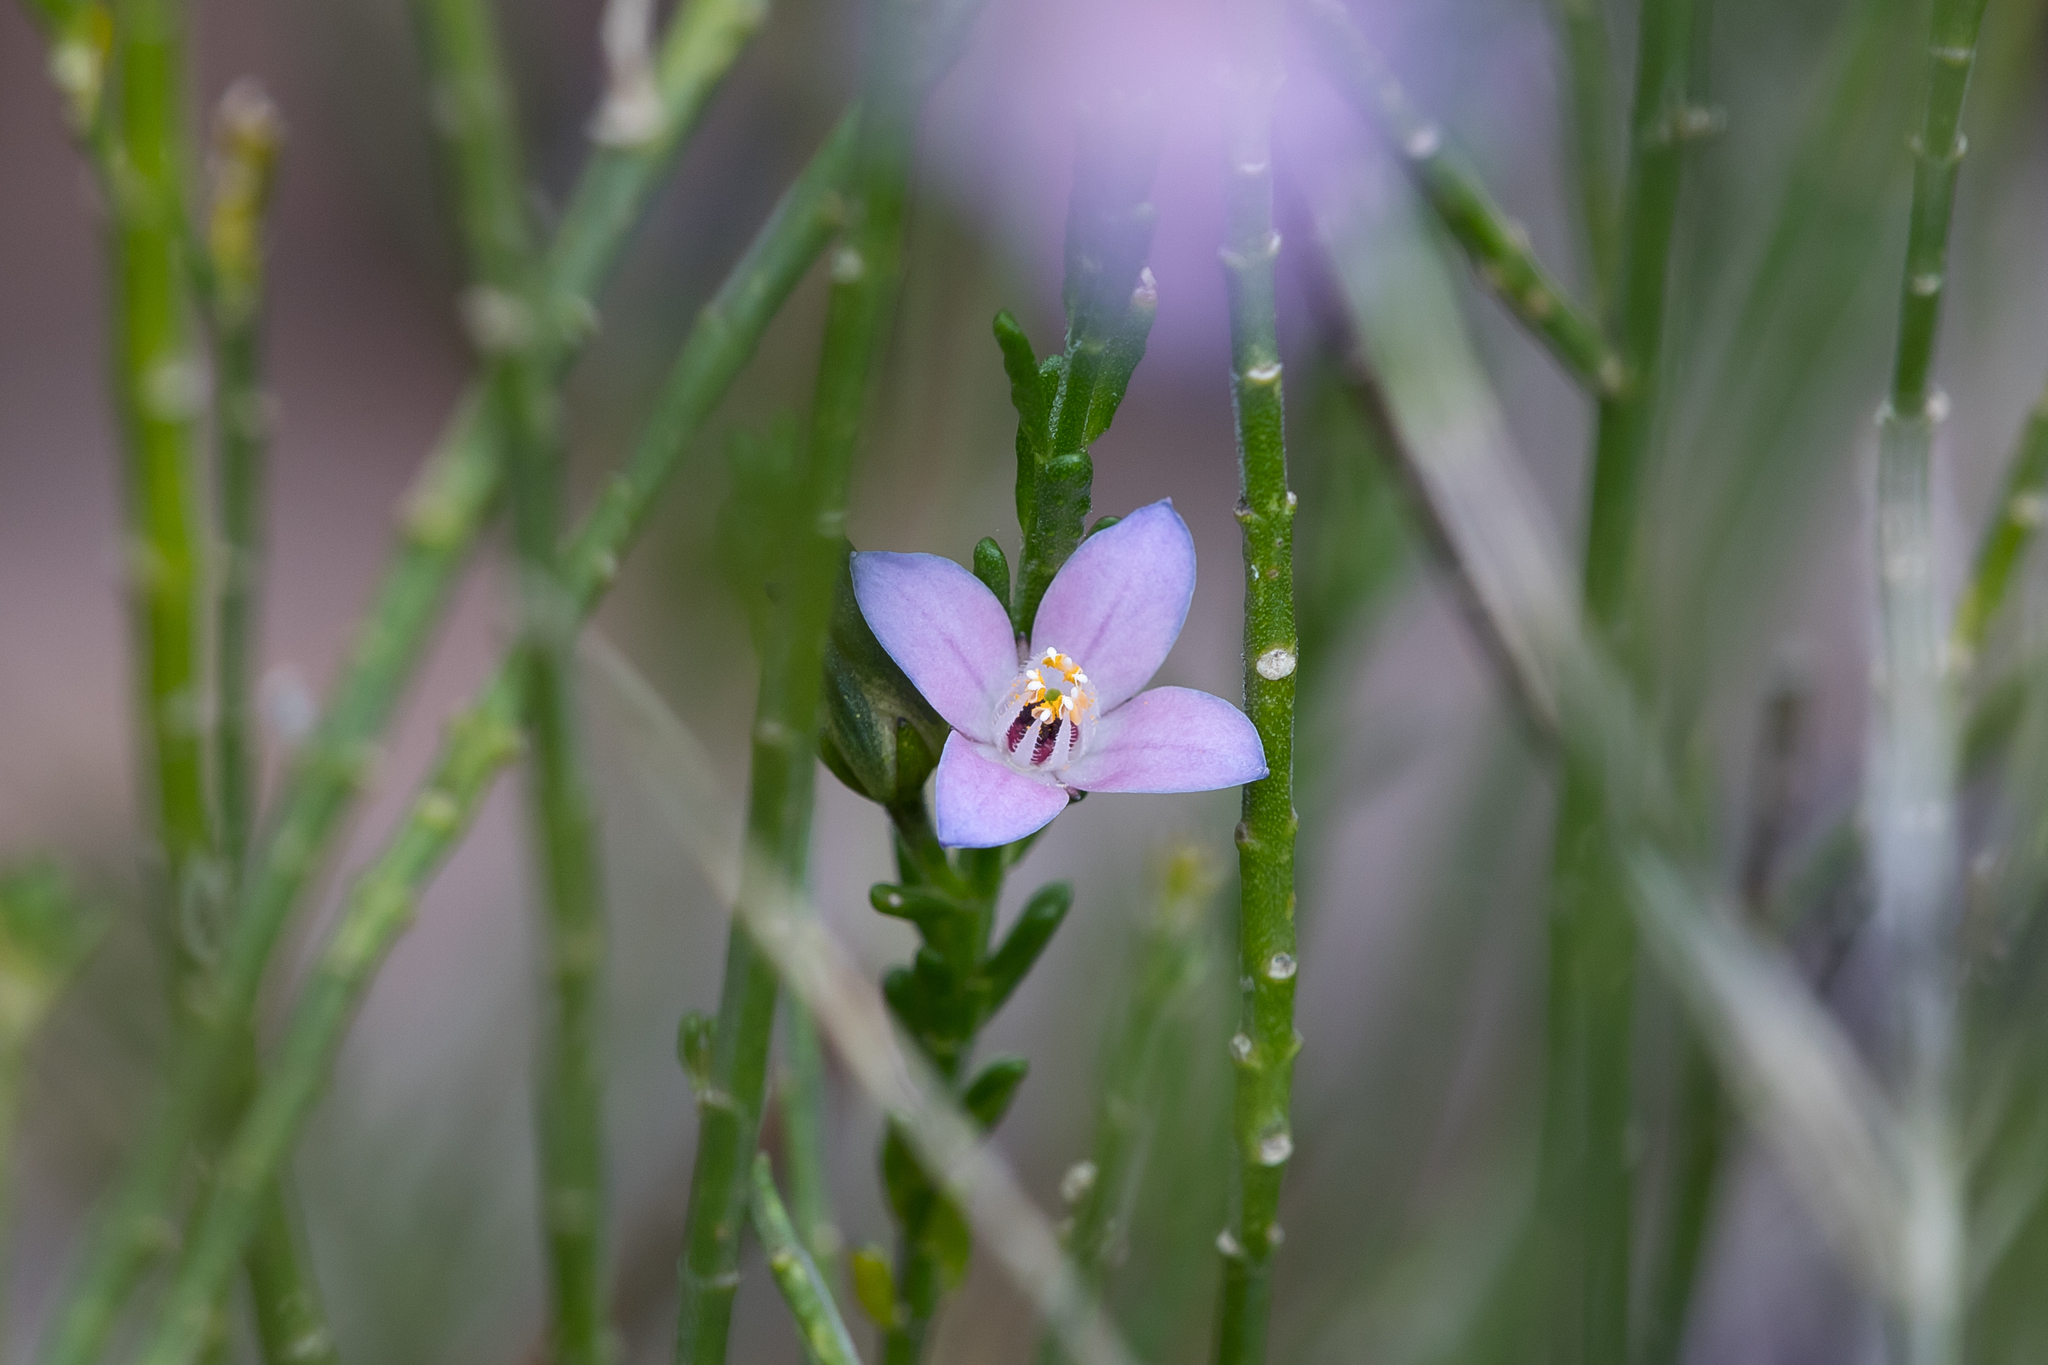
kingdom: Plantae
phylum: Tracheophyta
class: Magnoliopsida
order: Sapindales
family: Rutaceae
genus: Cyanothamnus
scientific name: Cyanothamnus coerulescens
